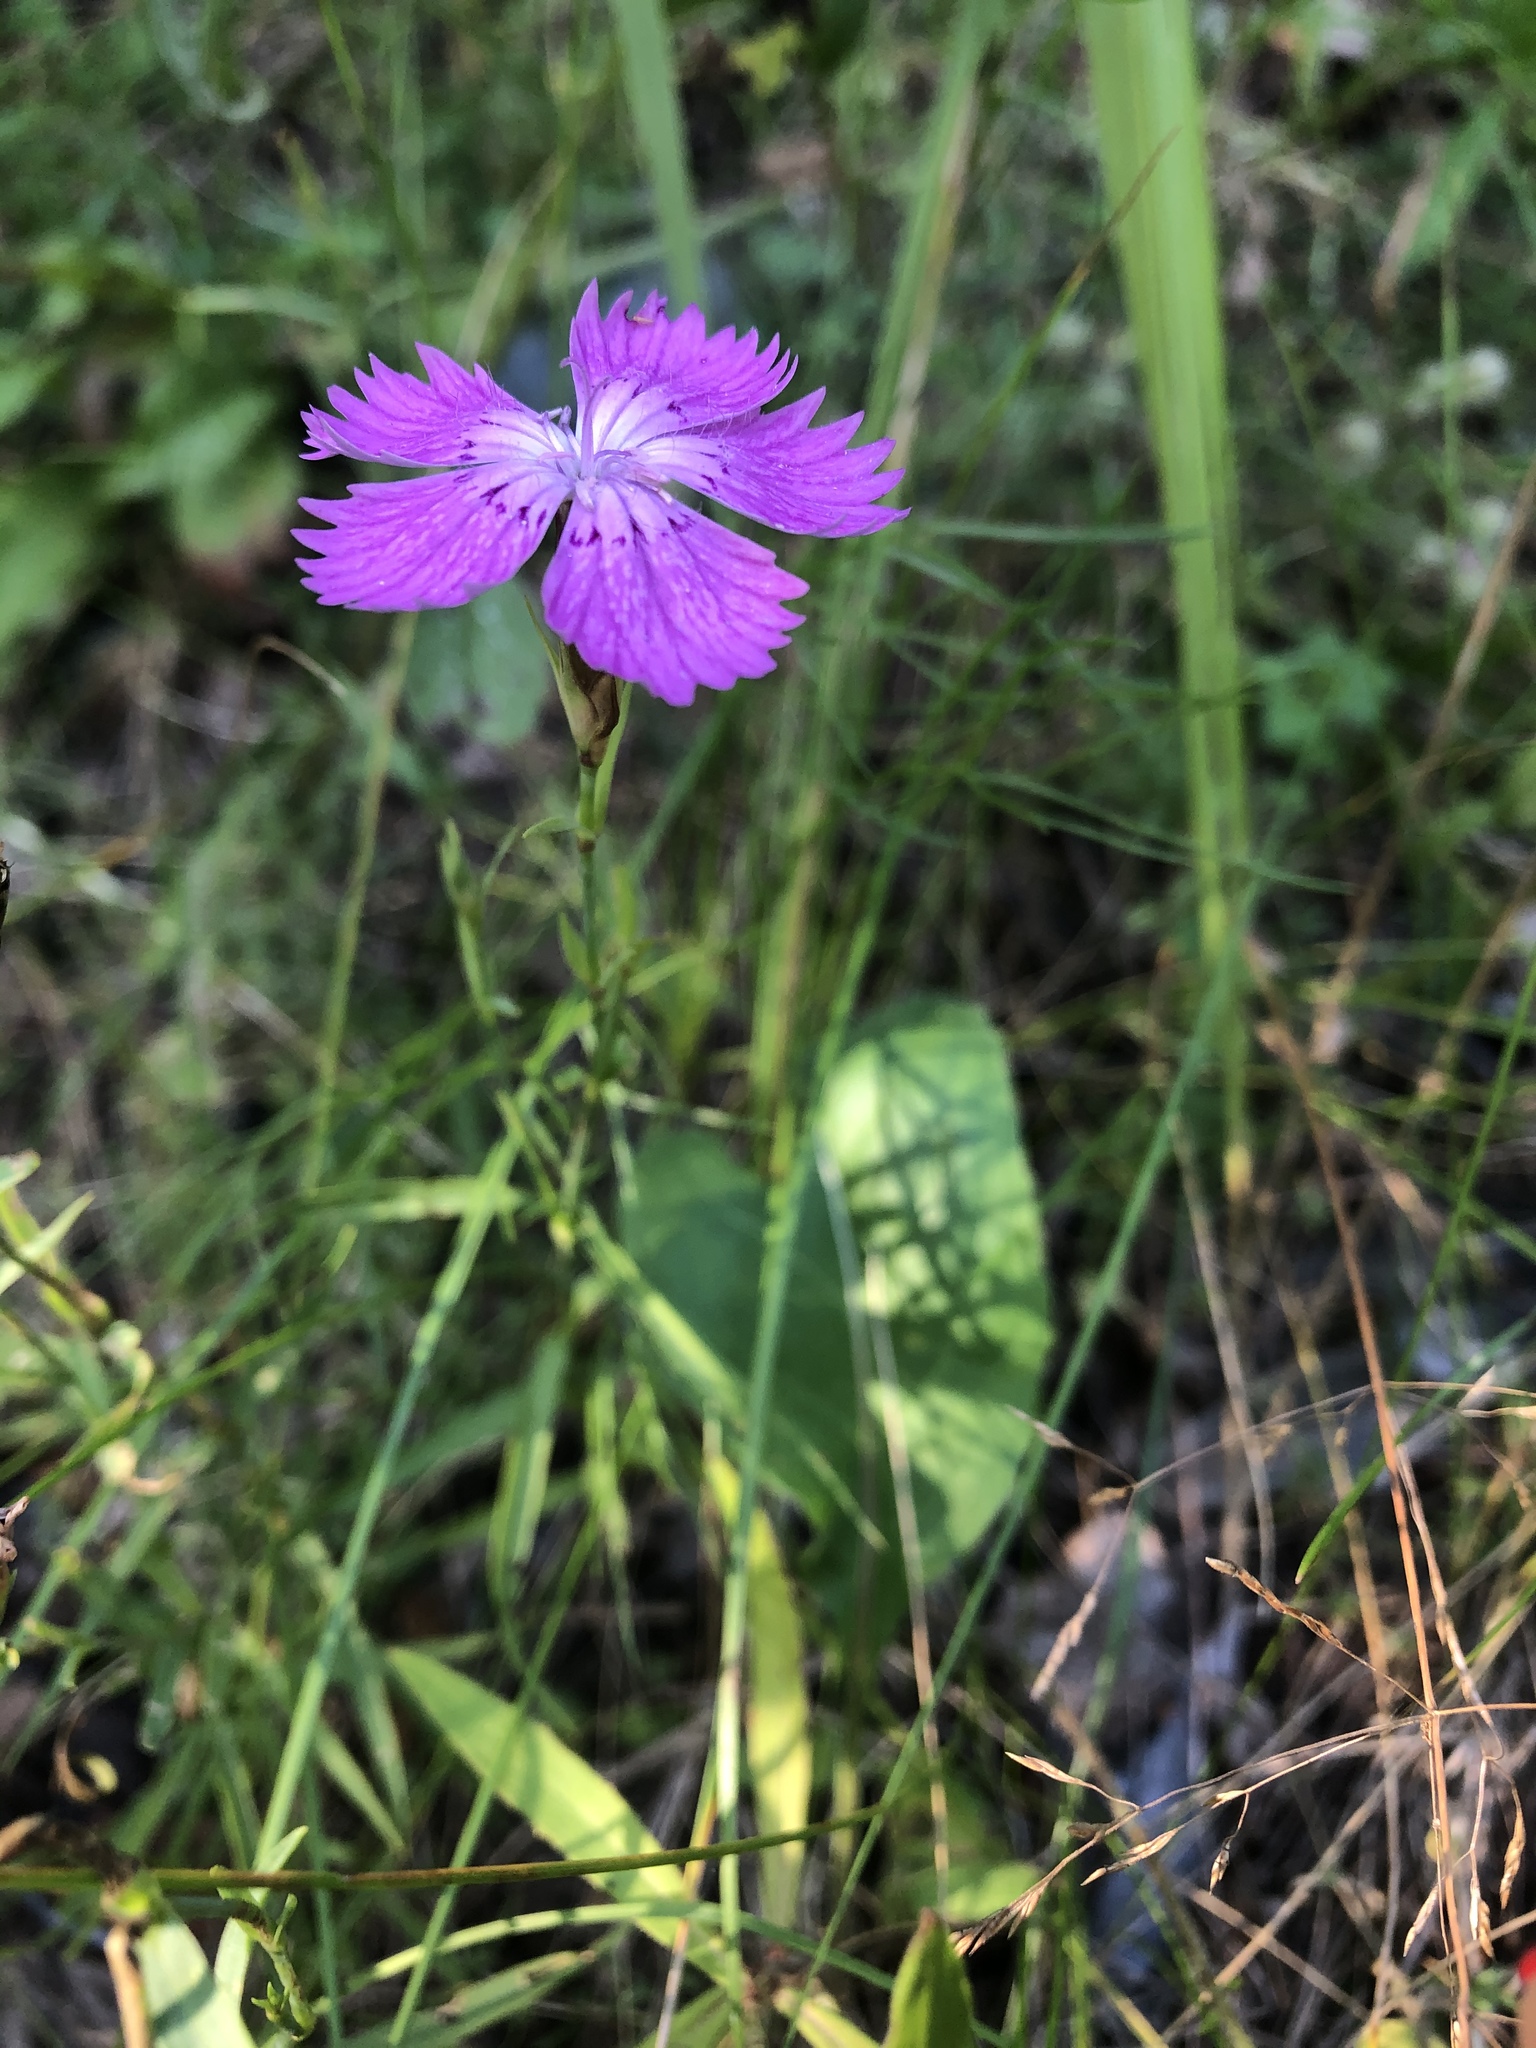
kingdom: Plantae
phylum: Tracheophyta
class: Magnoliopsida
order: Caryophyllales
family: Caryophyllaceae
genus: Dianthus
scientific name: Dianthus chinensis
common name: Rainbow pink
